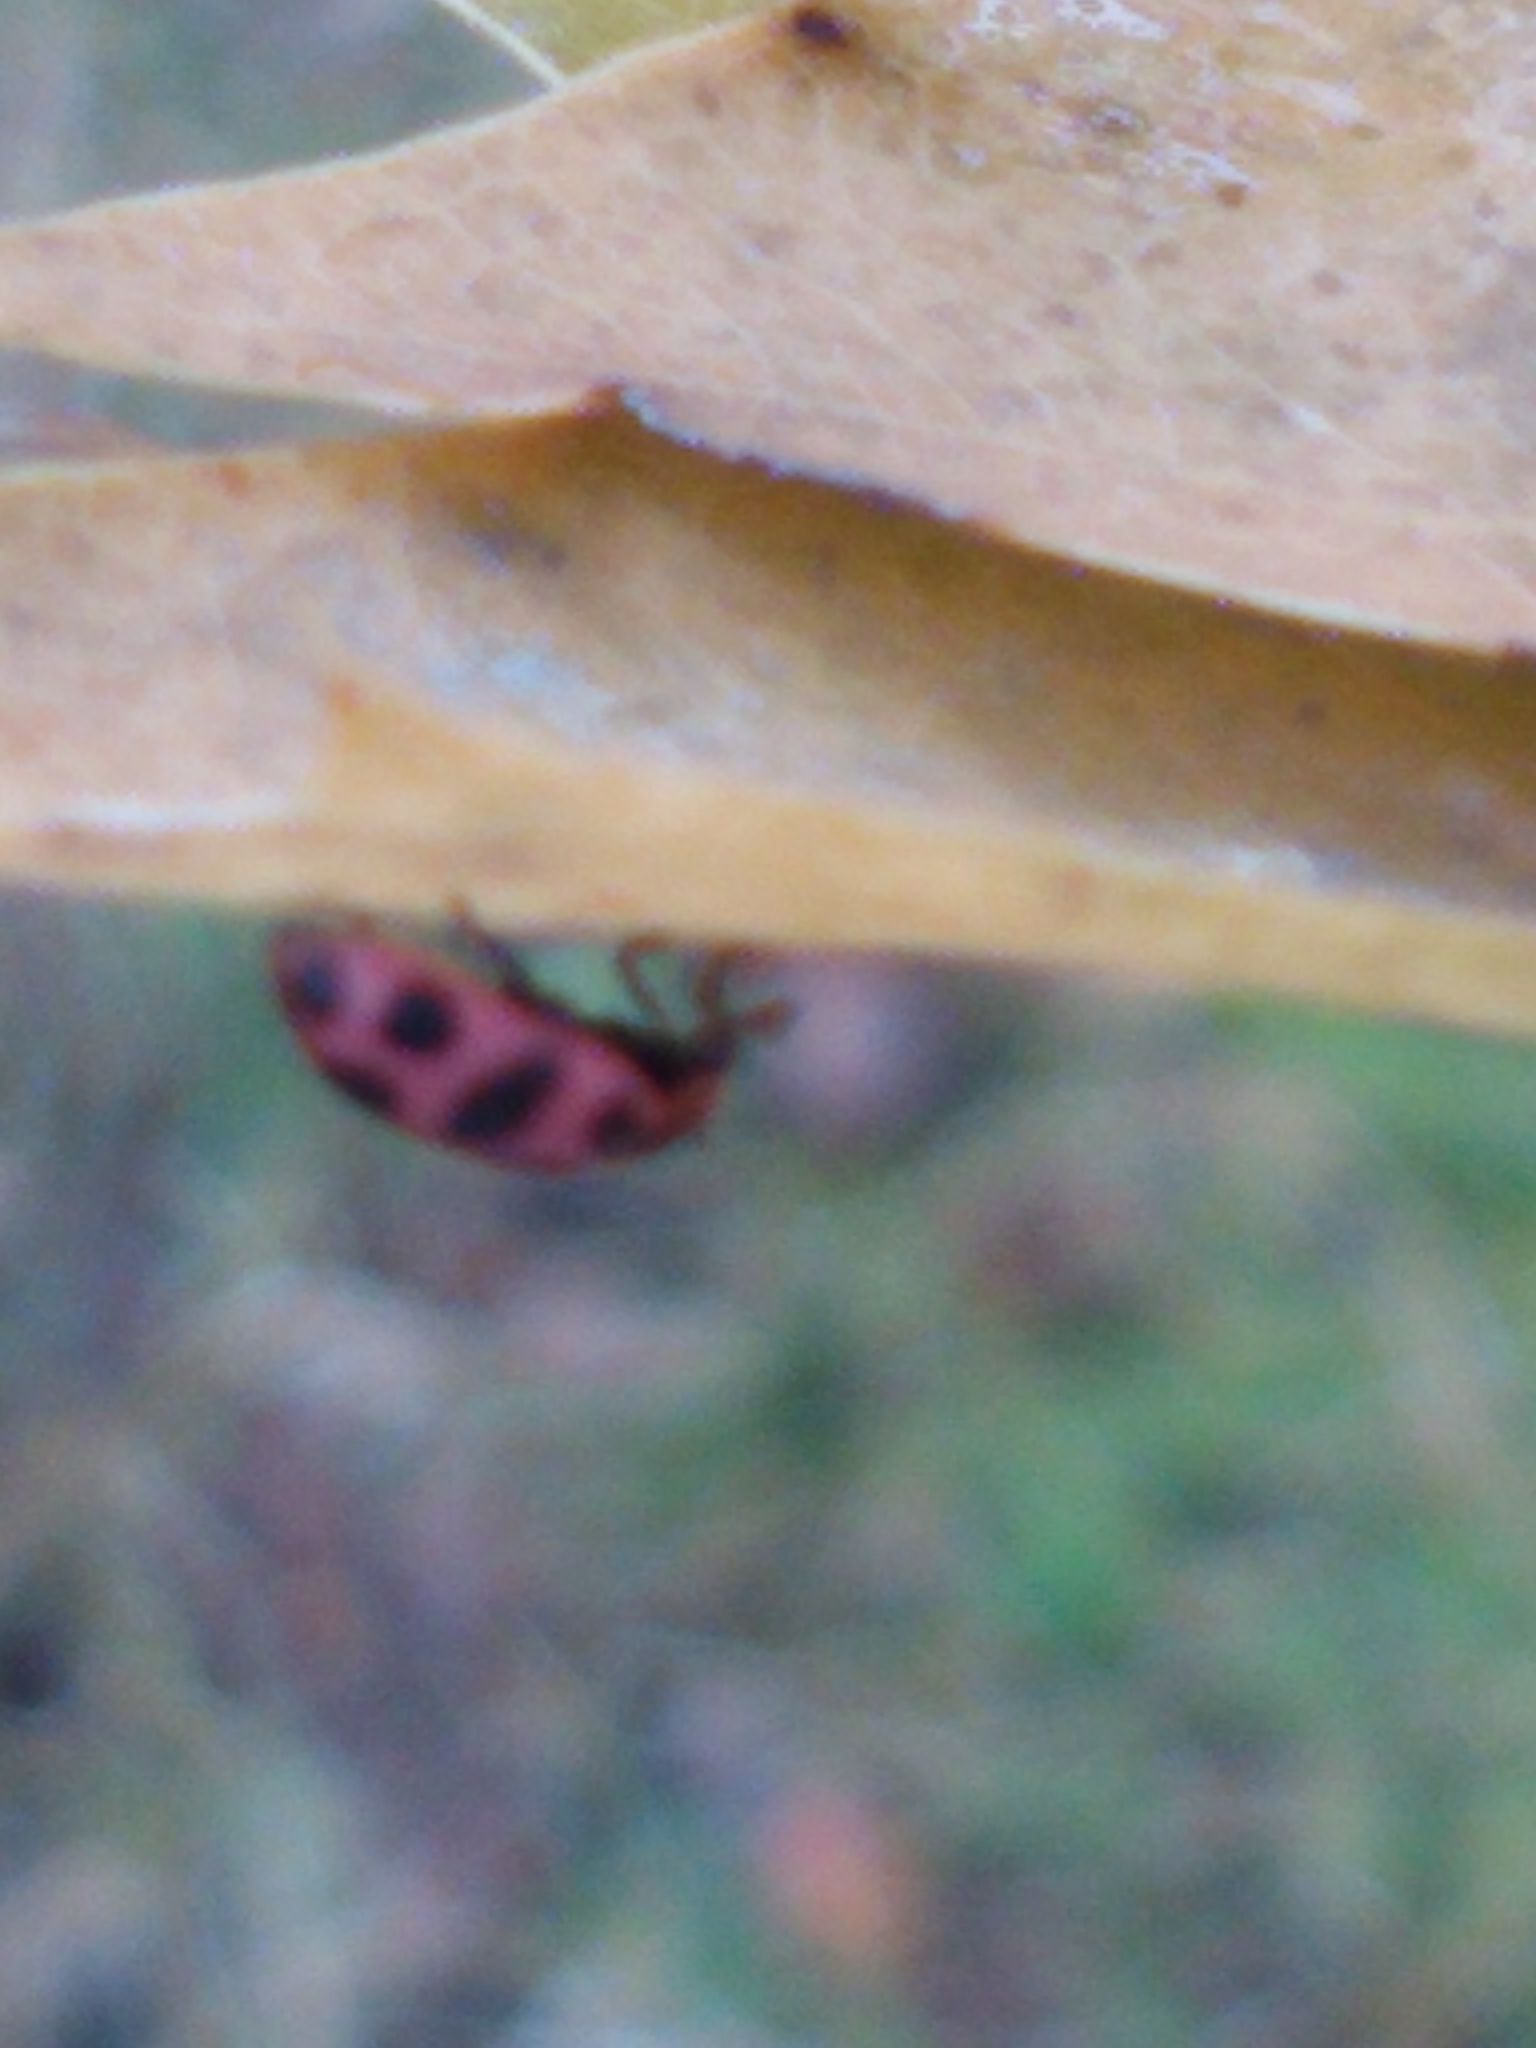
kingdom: Animalia
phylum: Arthropoda
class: Insecta
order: Coleoptera
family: Coccinellidae
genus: Coleomegilla
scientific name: Coleomegilla maculata
